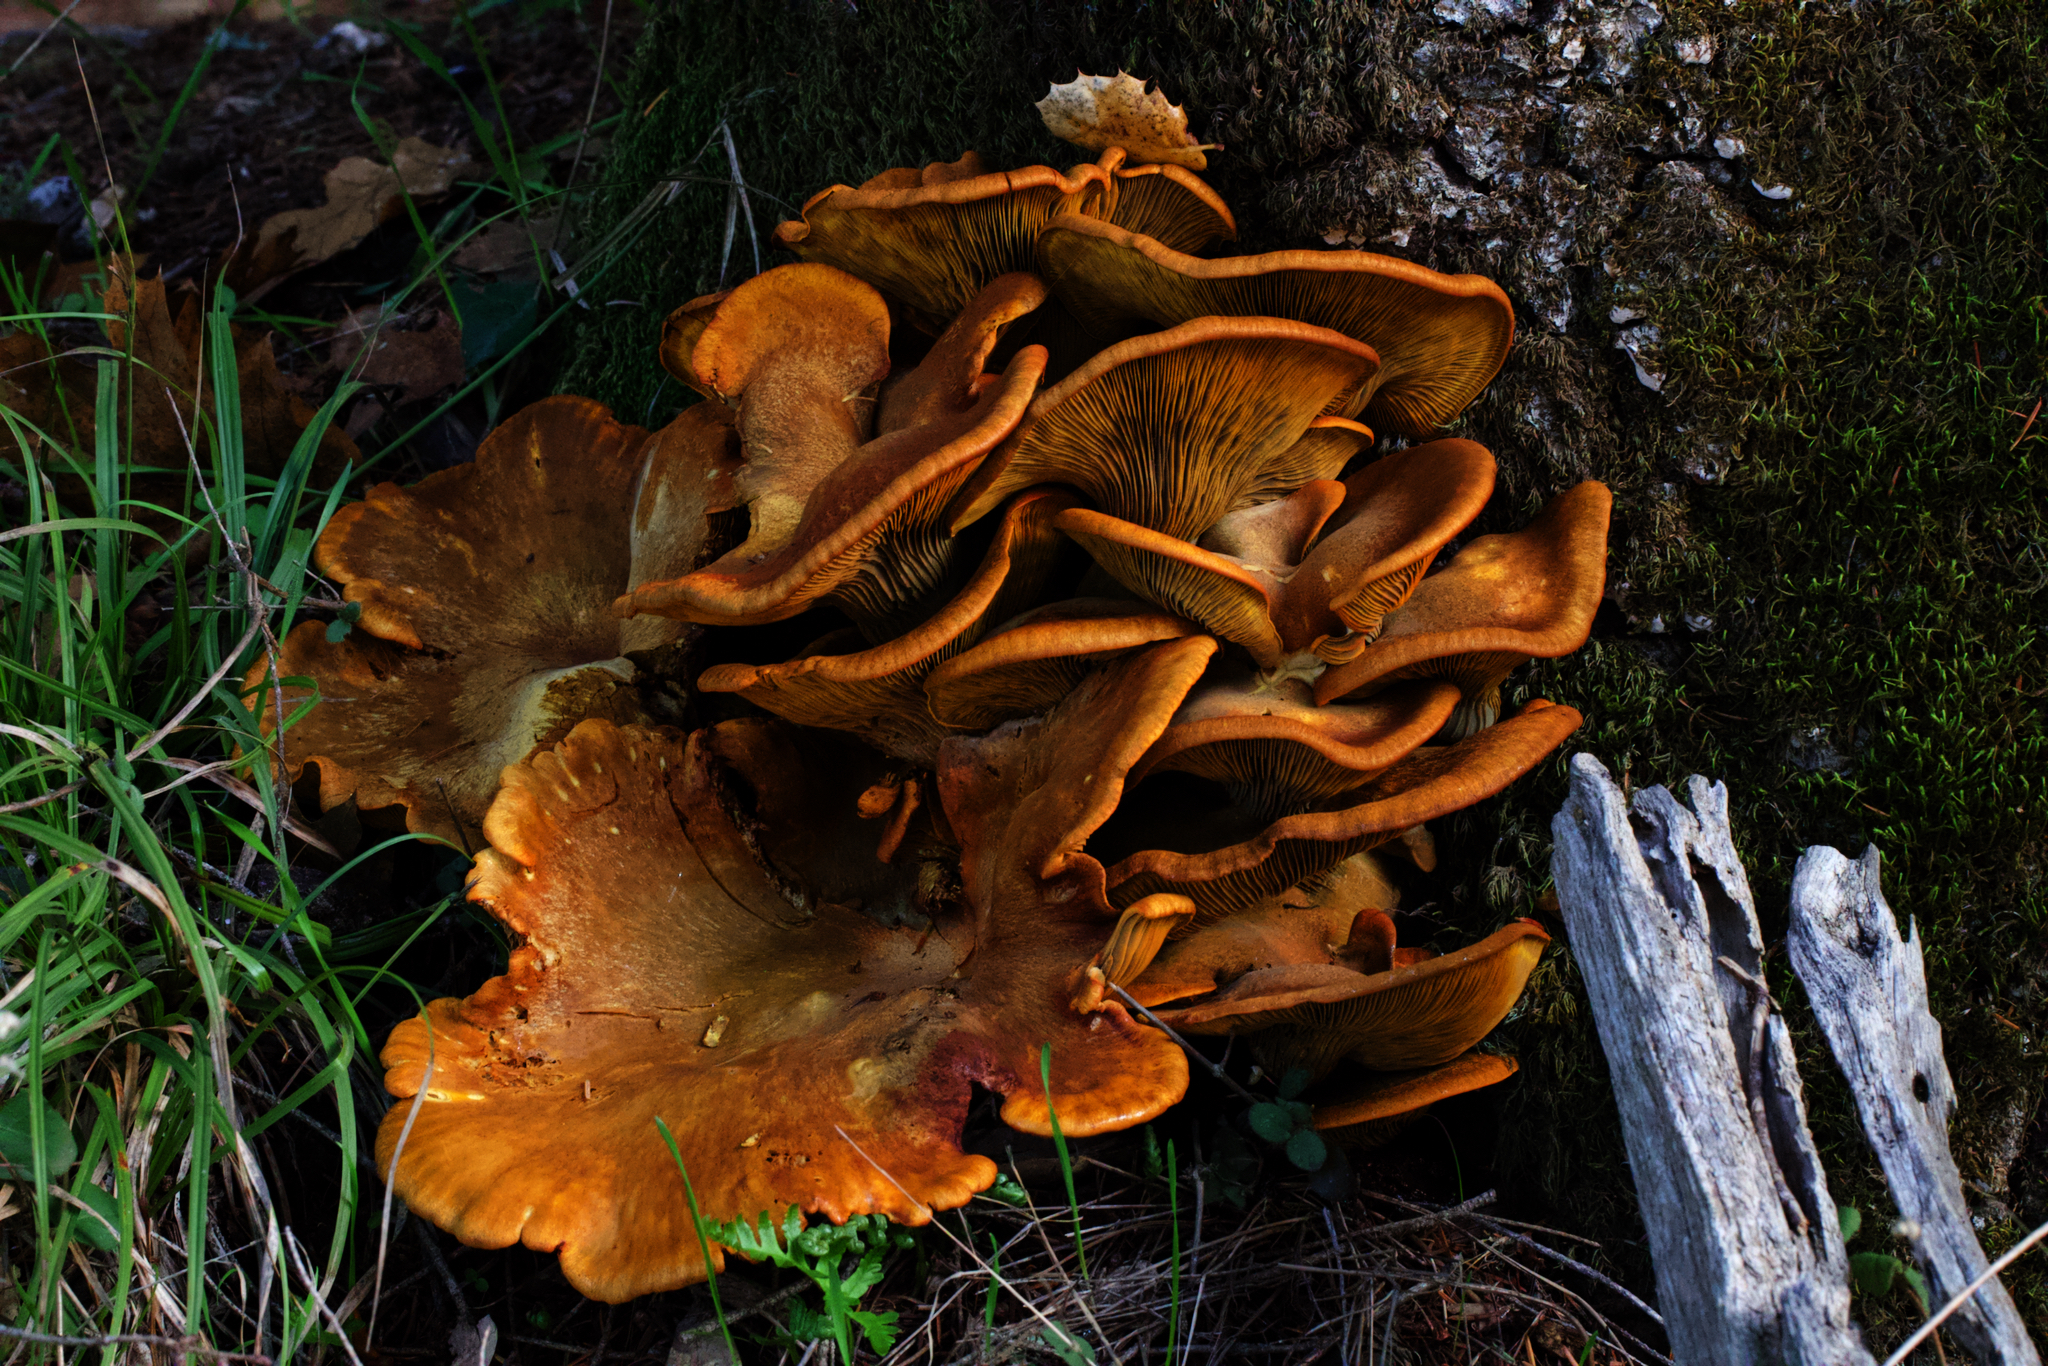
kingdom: Fungi
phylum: Basidiomycota
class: Agaricomycetes
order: Agaricales
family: Omphalotaceae
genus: Omphalotus
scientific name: Omphalotus olivascens
